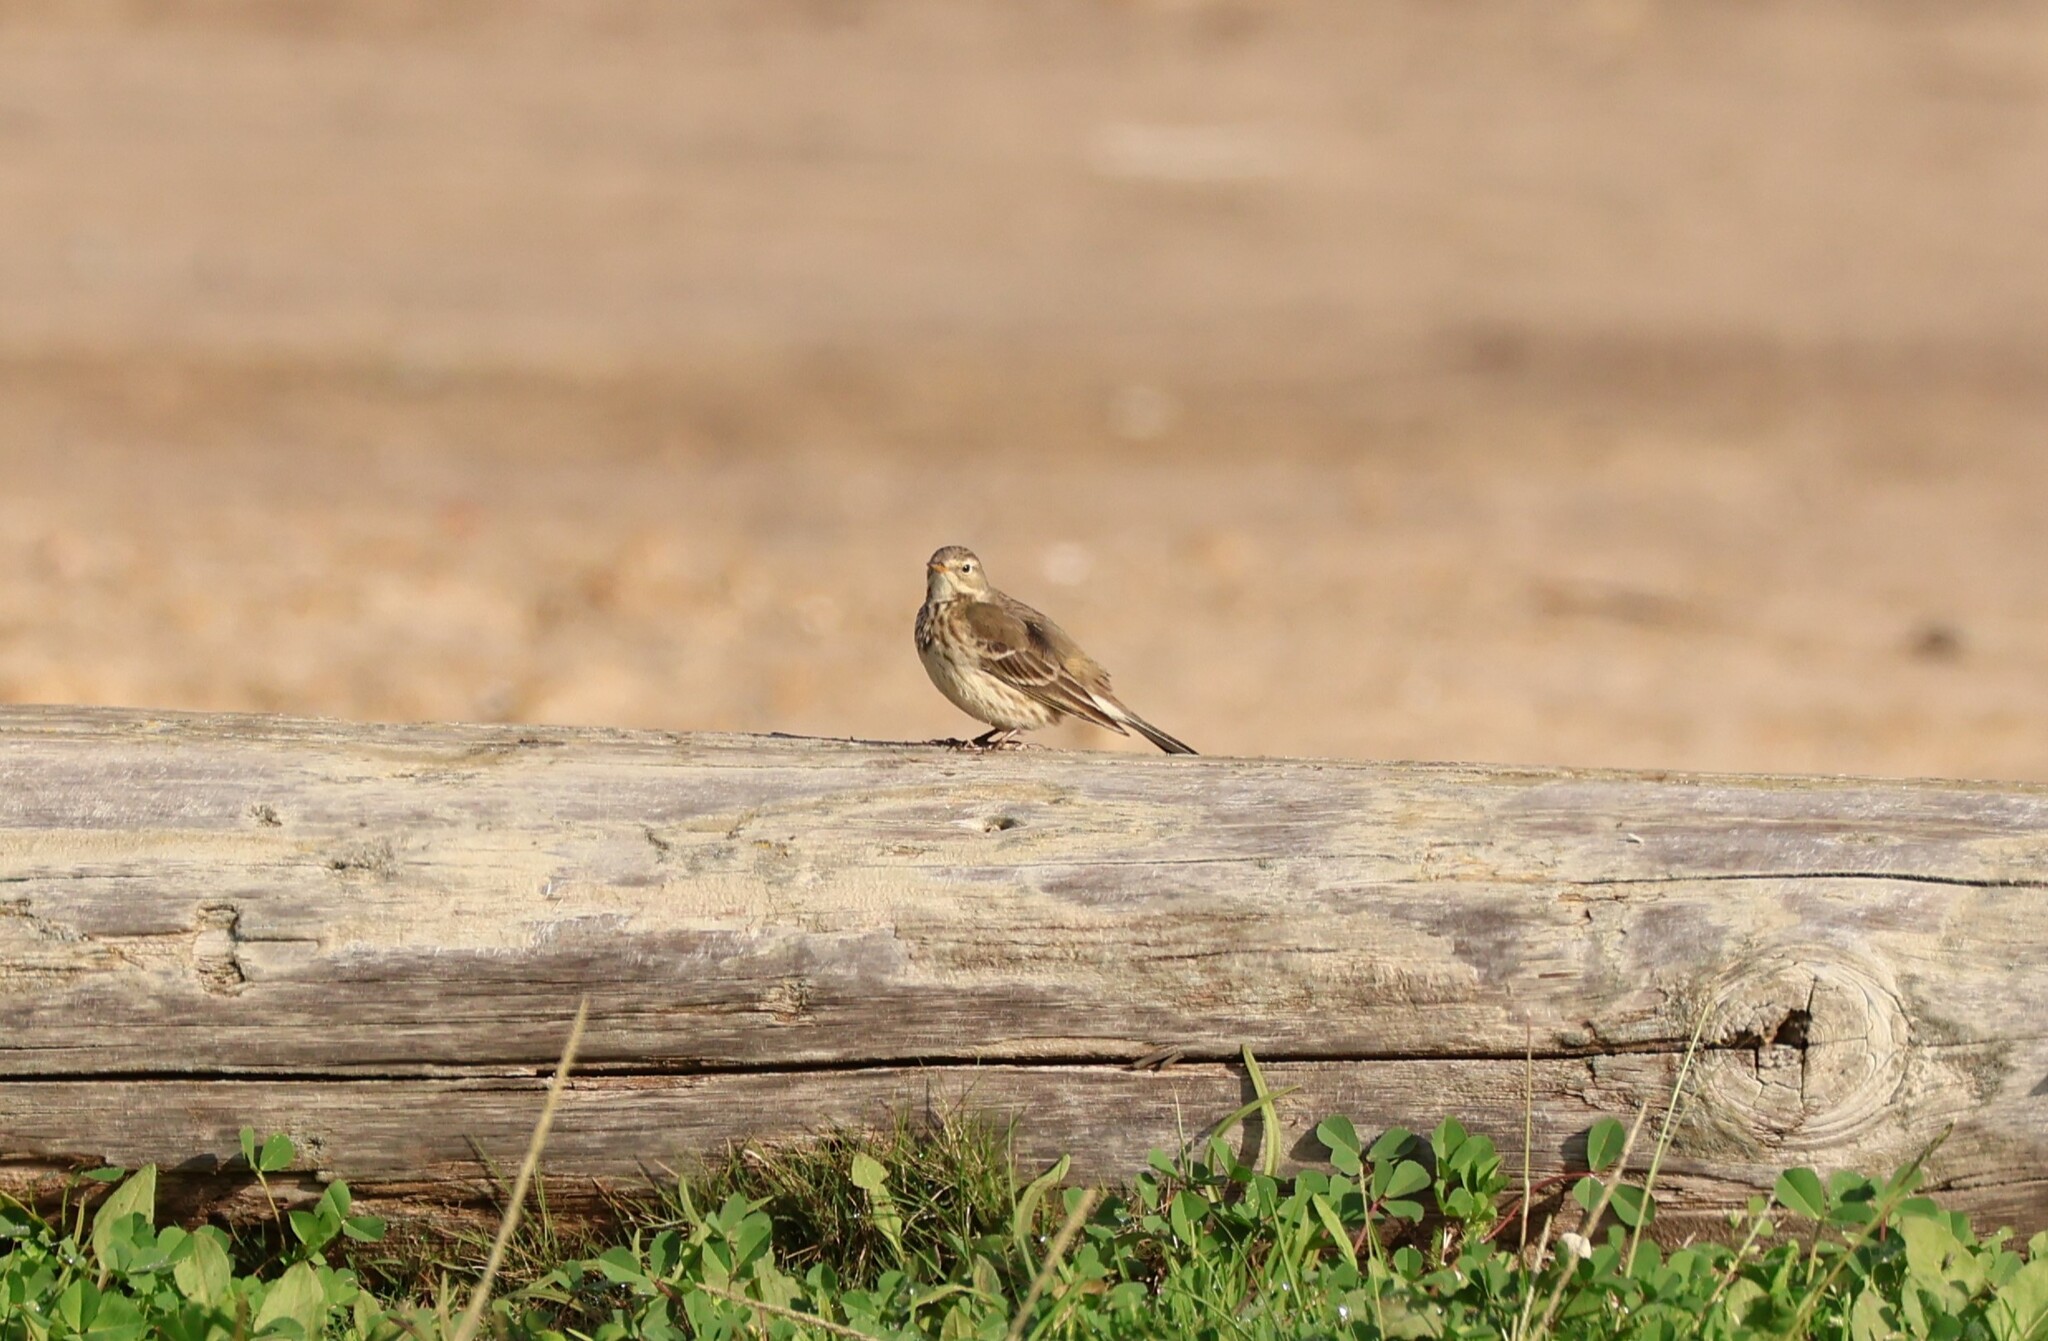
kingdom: Animalia
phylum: Chordata
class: Aves
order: Passeriformes
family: Motacillidae
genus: Anthus
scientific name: Anthus rubescens
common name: Buff-bellied pipit
